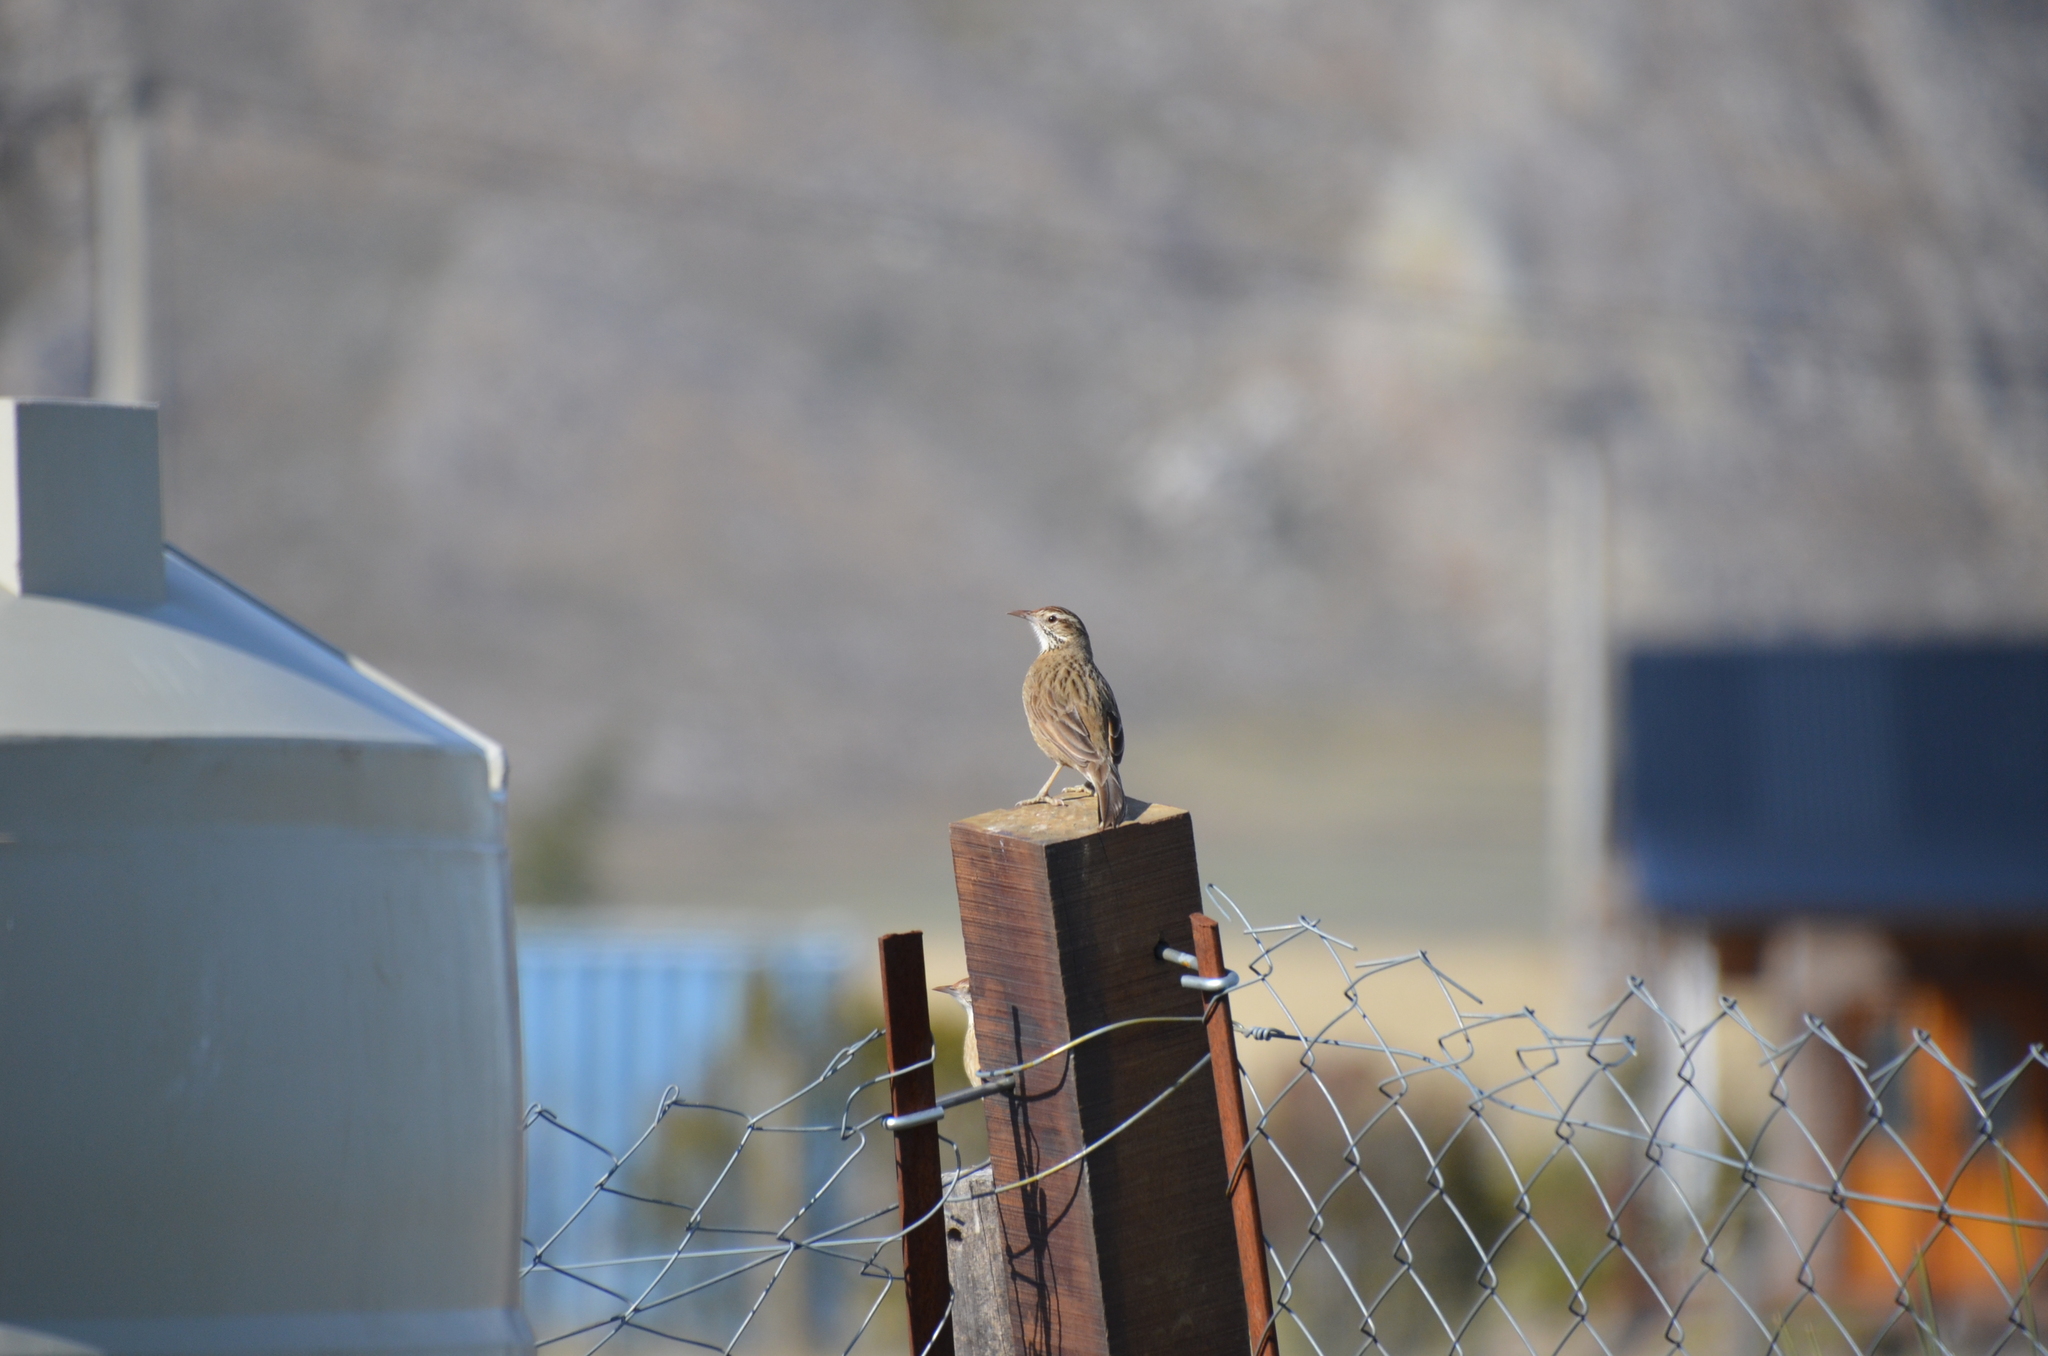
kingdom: Animalia
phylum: Chordata
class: Aves
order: Passeriformes
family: Furnariidae
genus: Anumbius
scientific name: Anumbius annumbi
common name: Firewood-gatherer
